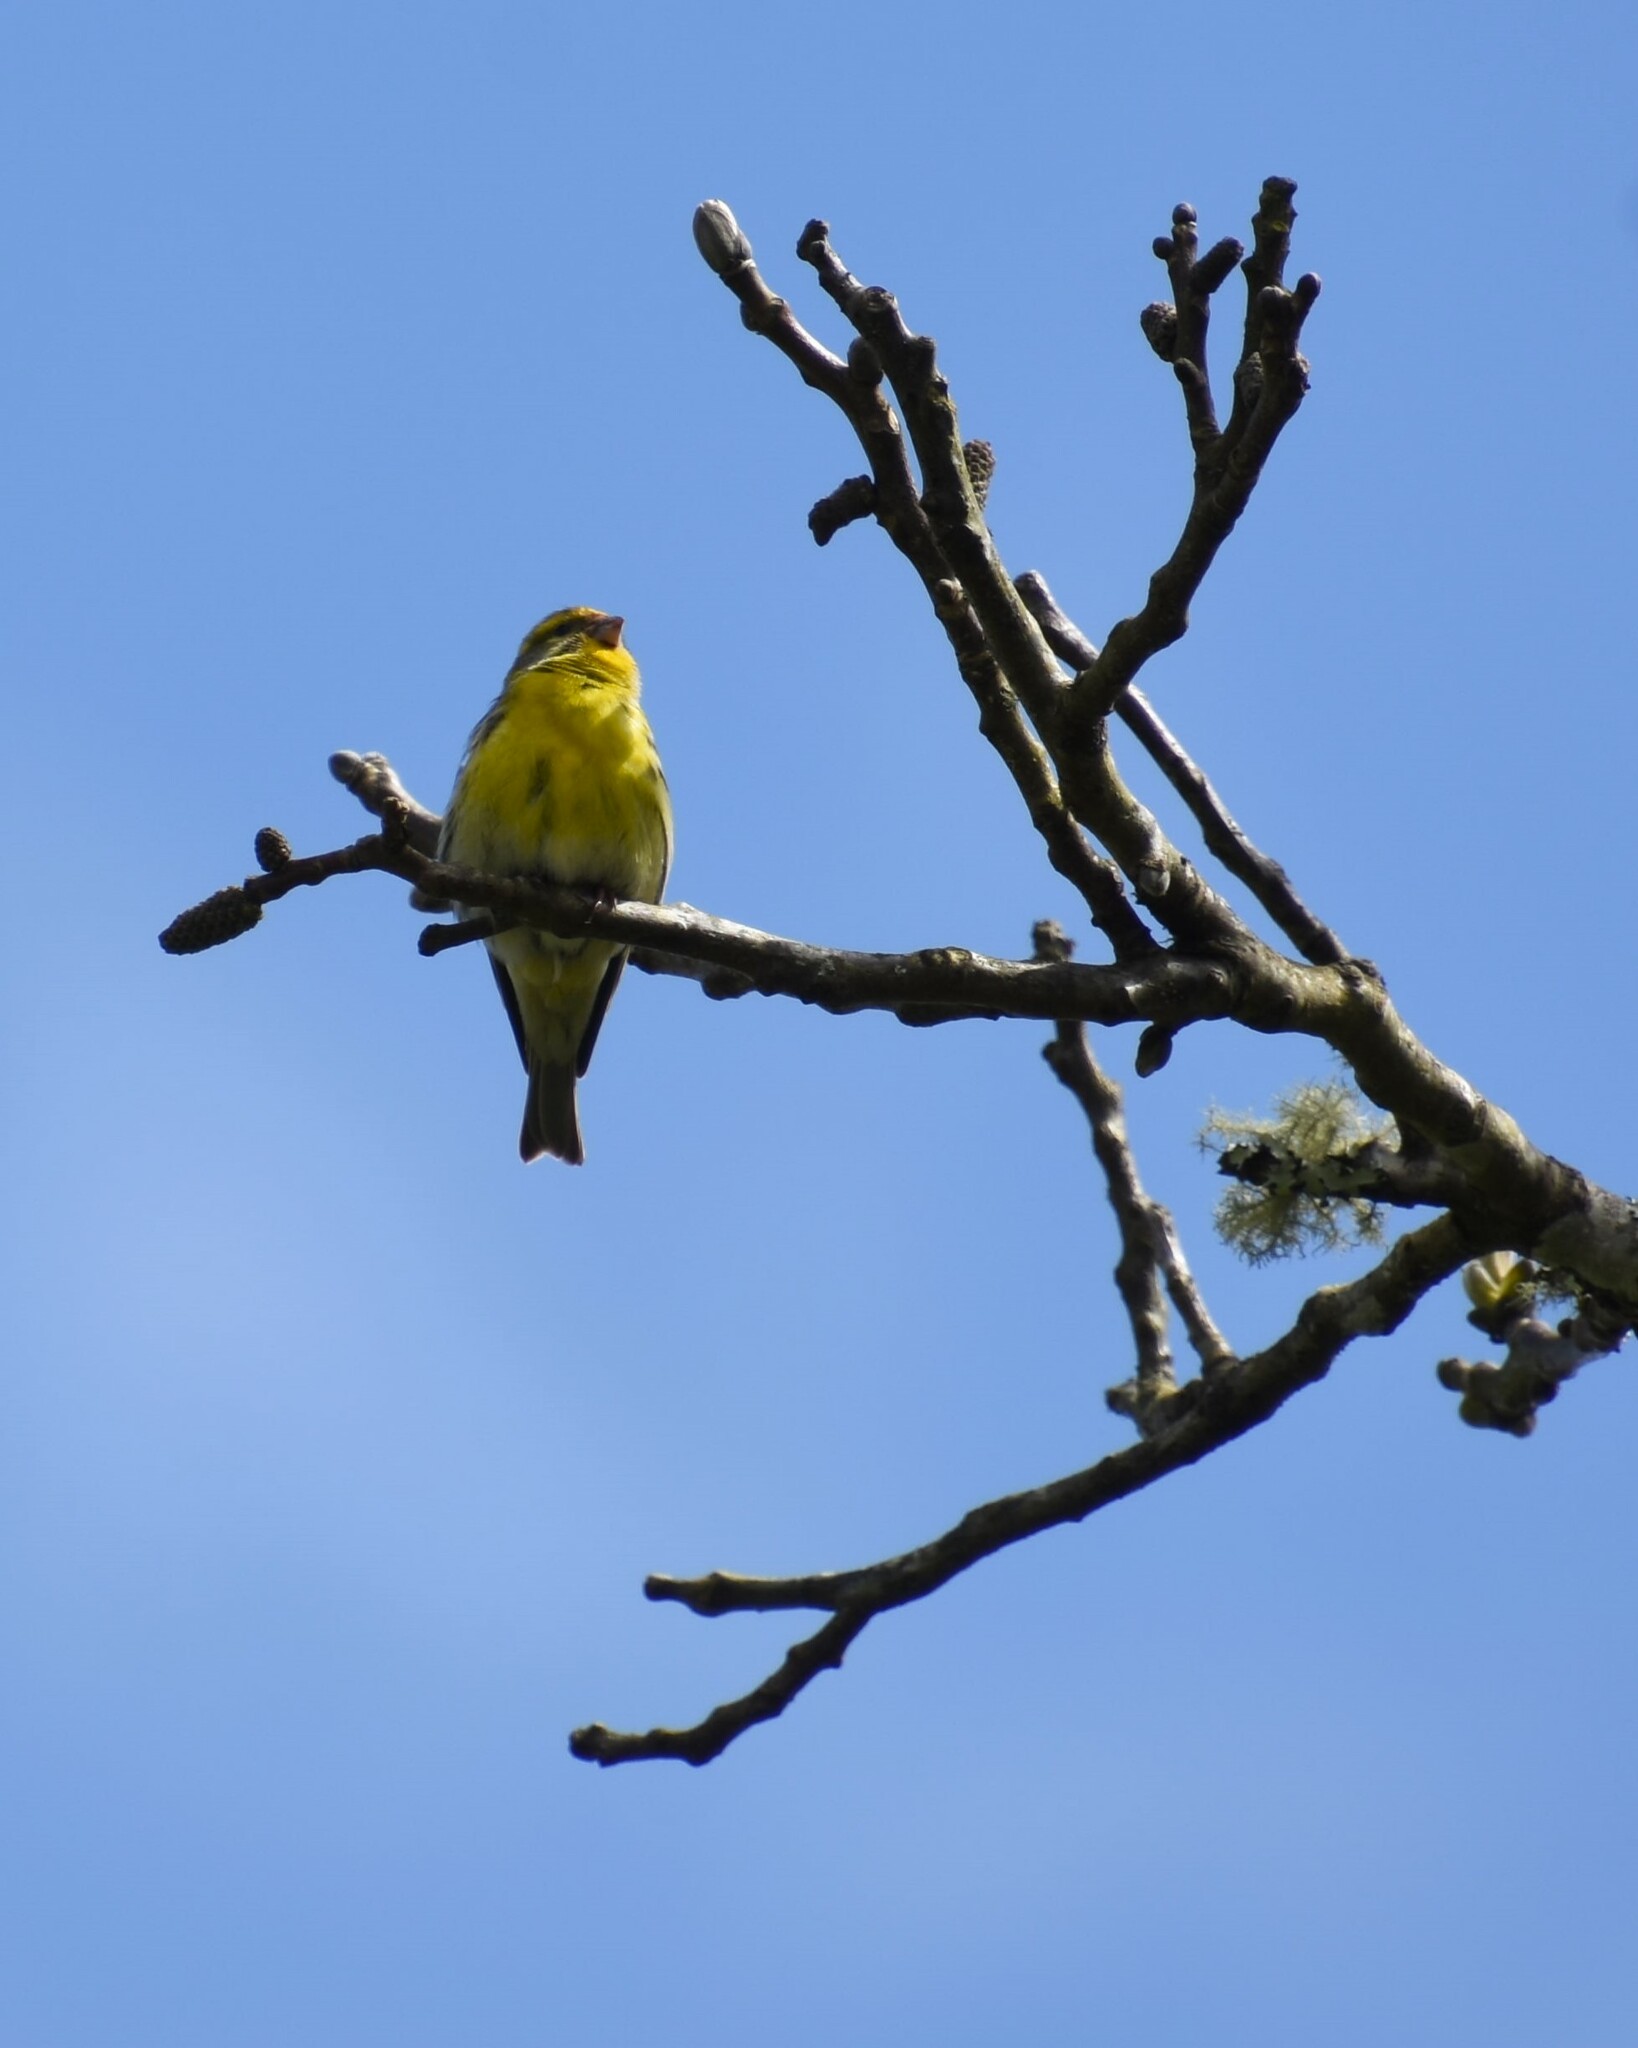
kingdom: Animalia
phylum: Chordata
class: Aves
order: Passeriformes
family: Fringillidae
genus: Serinus
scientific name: Serinus serinus
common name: European serin
